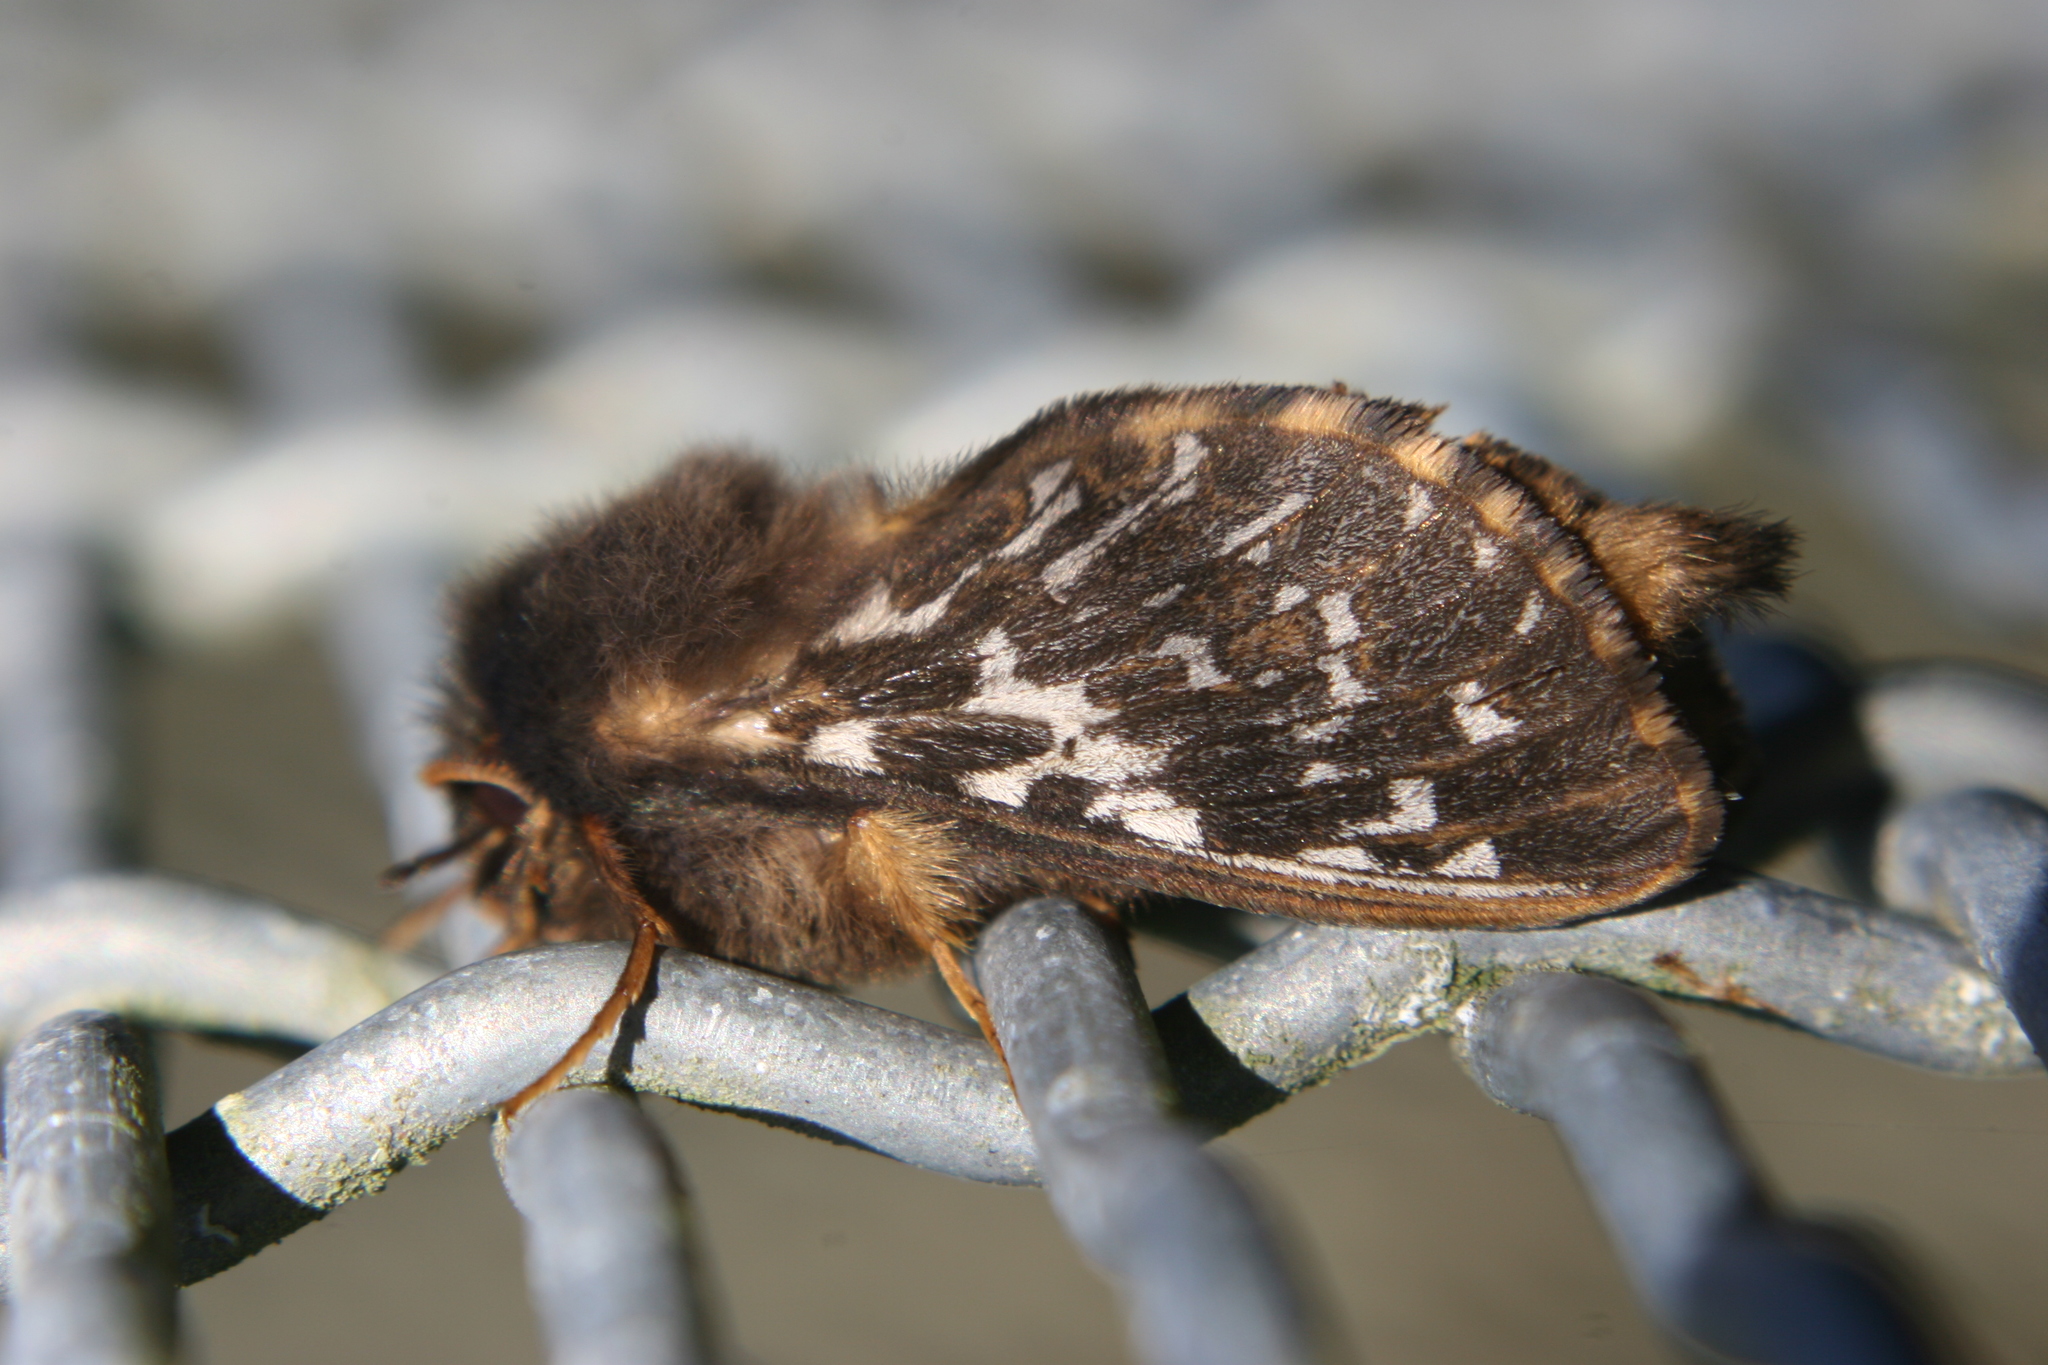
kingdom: Animalia
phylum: Arthropoda
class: Insecta
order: Lepidoptera
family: Hepialidae
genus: Cladoxycanus
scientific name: Cladoxycanus minos
